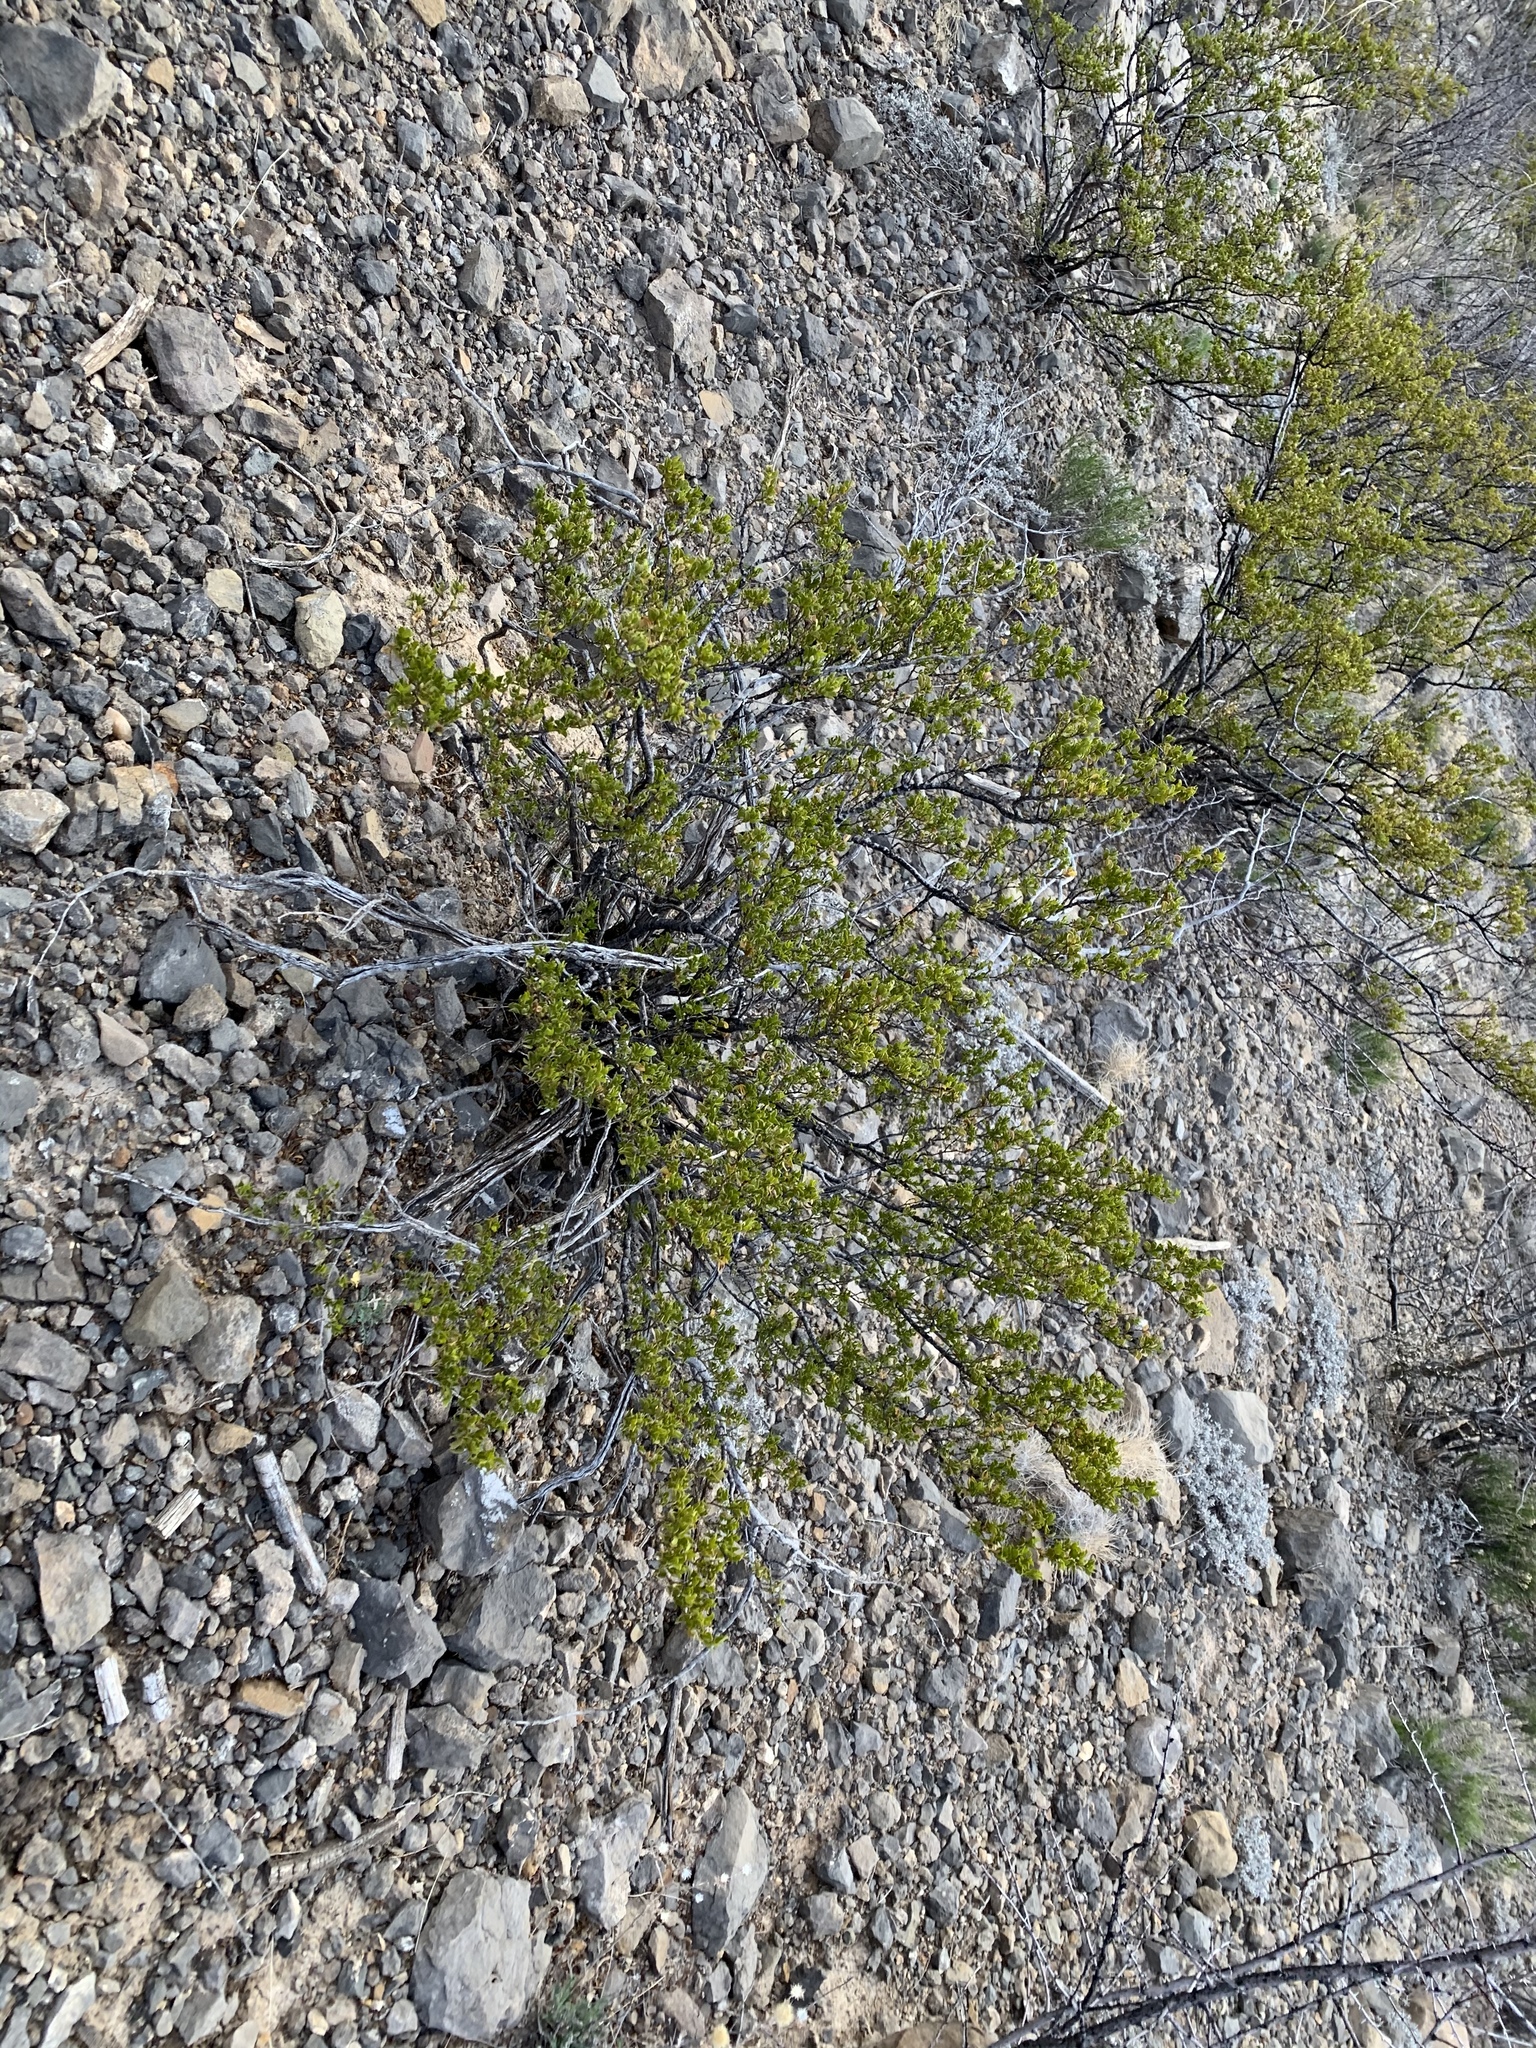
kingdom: Plantae
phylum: Tracheophyta
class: Magnoliopsida
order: Zygophyllales
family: Zygophyllaceae
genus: Larrea
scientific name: Larrea tridentata
